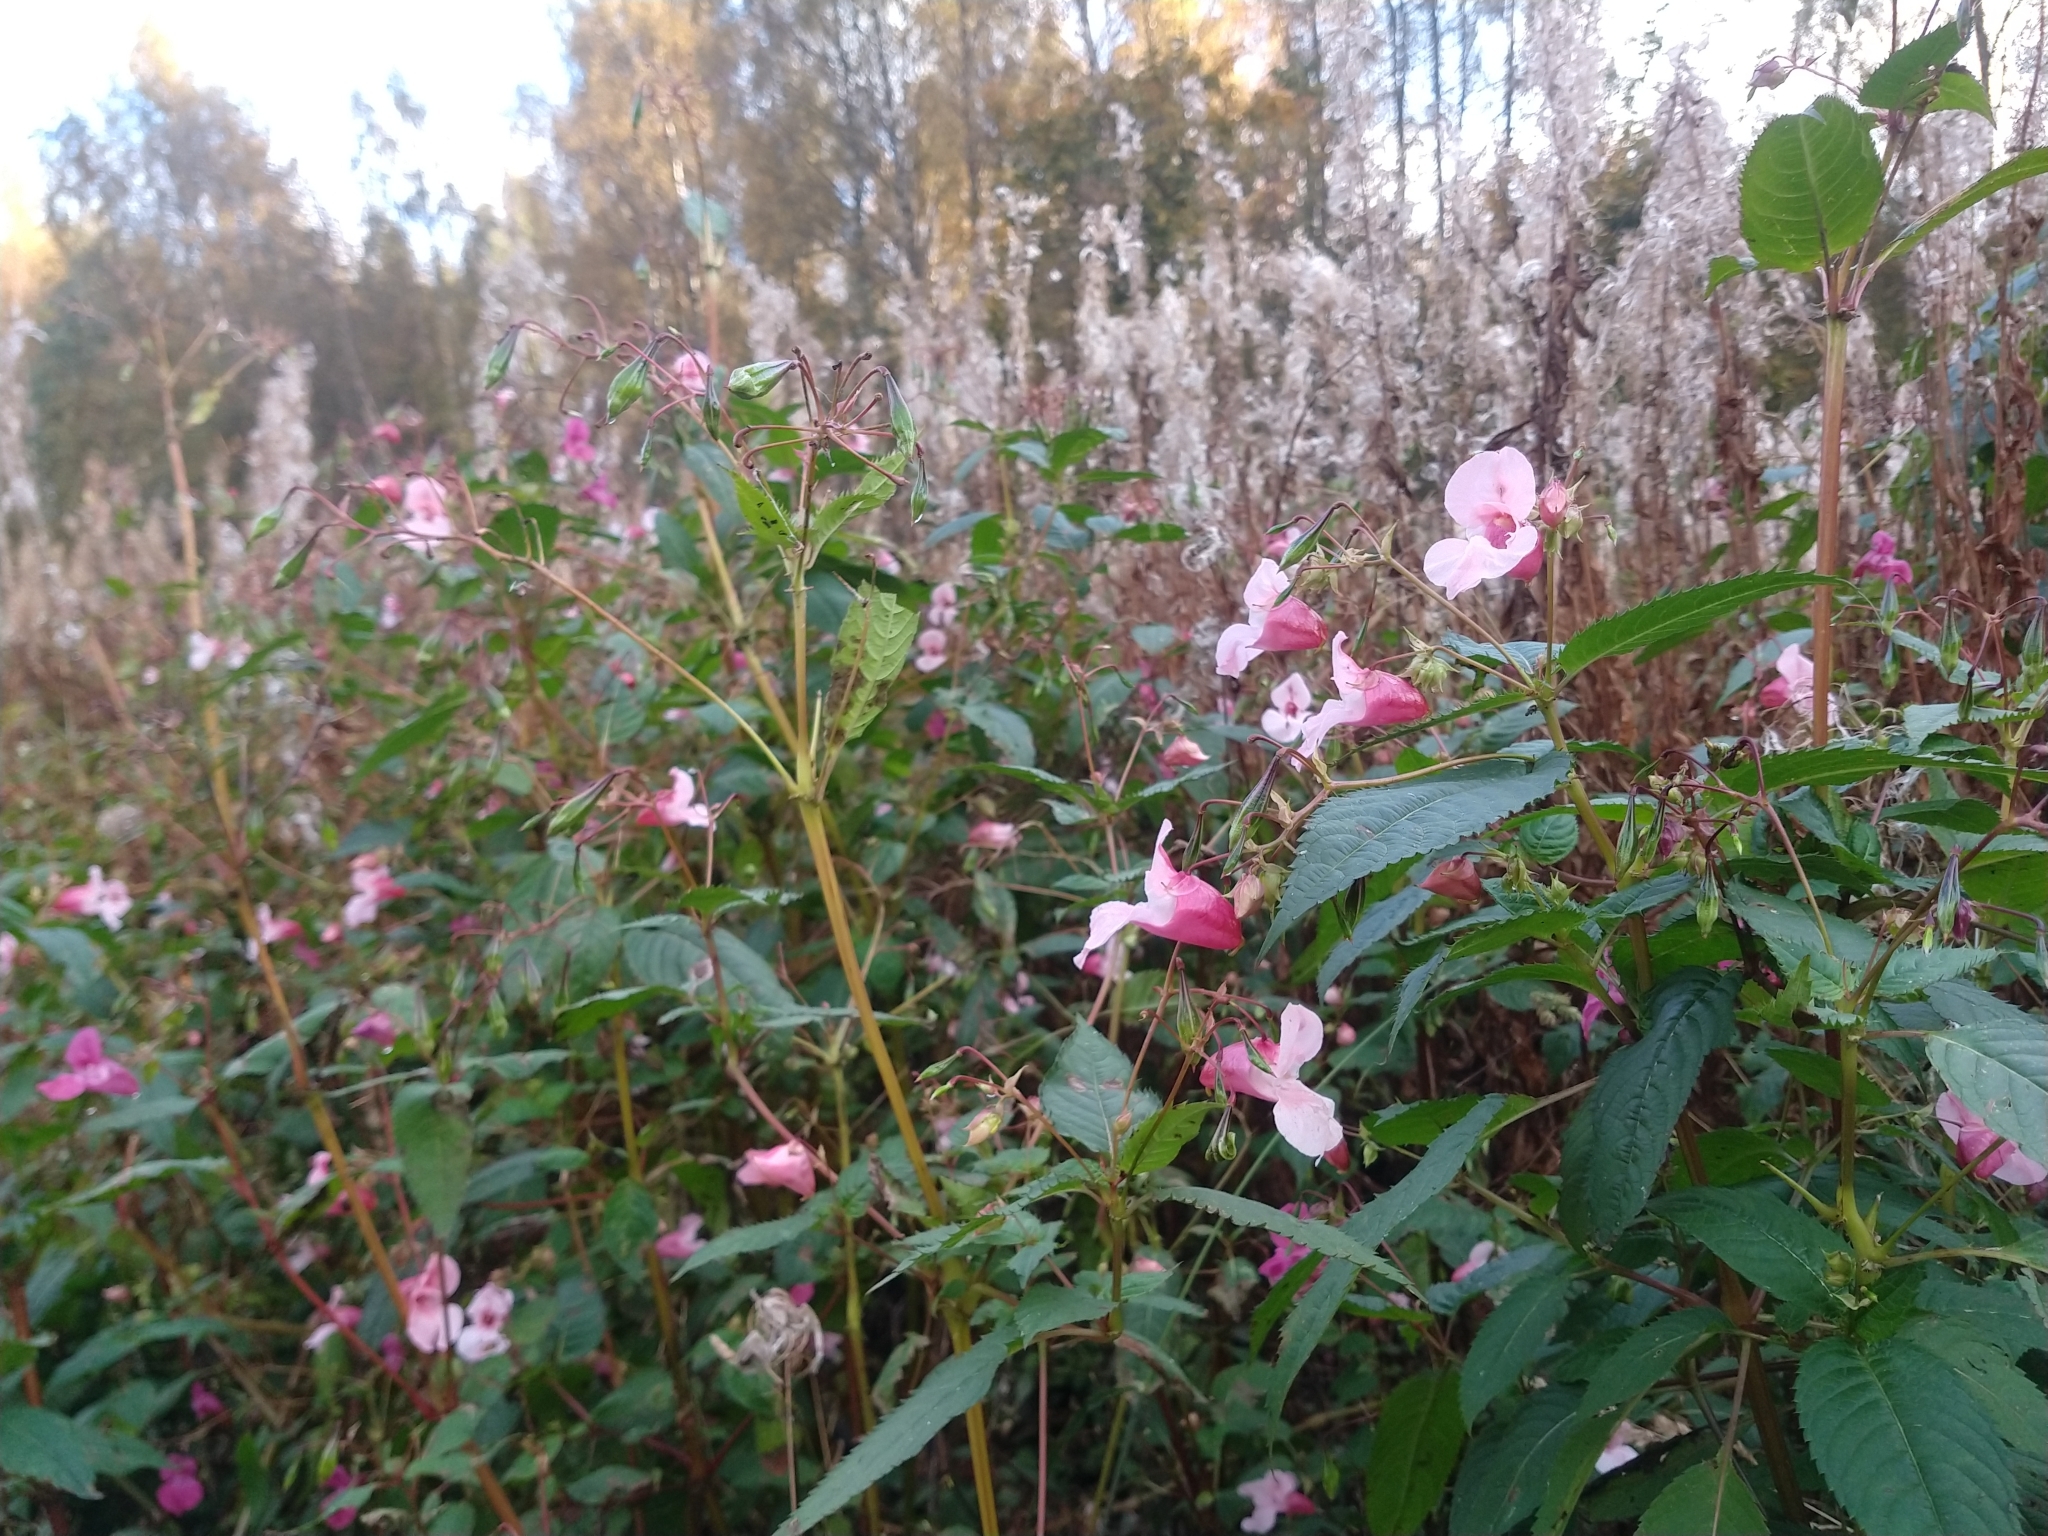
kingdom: Plantae
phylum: Tracheophyta
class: Magnoliopsida
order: Ericales
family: Balsaminaceae
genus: Impatiens
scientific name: Impatiens glandulifera
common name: Himalayan balsam
